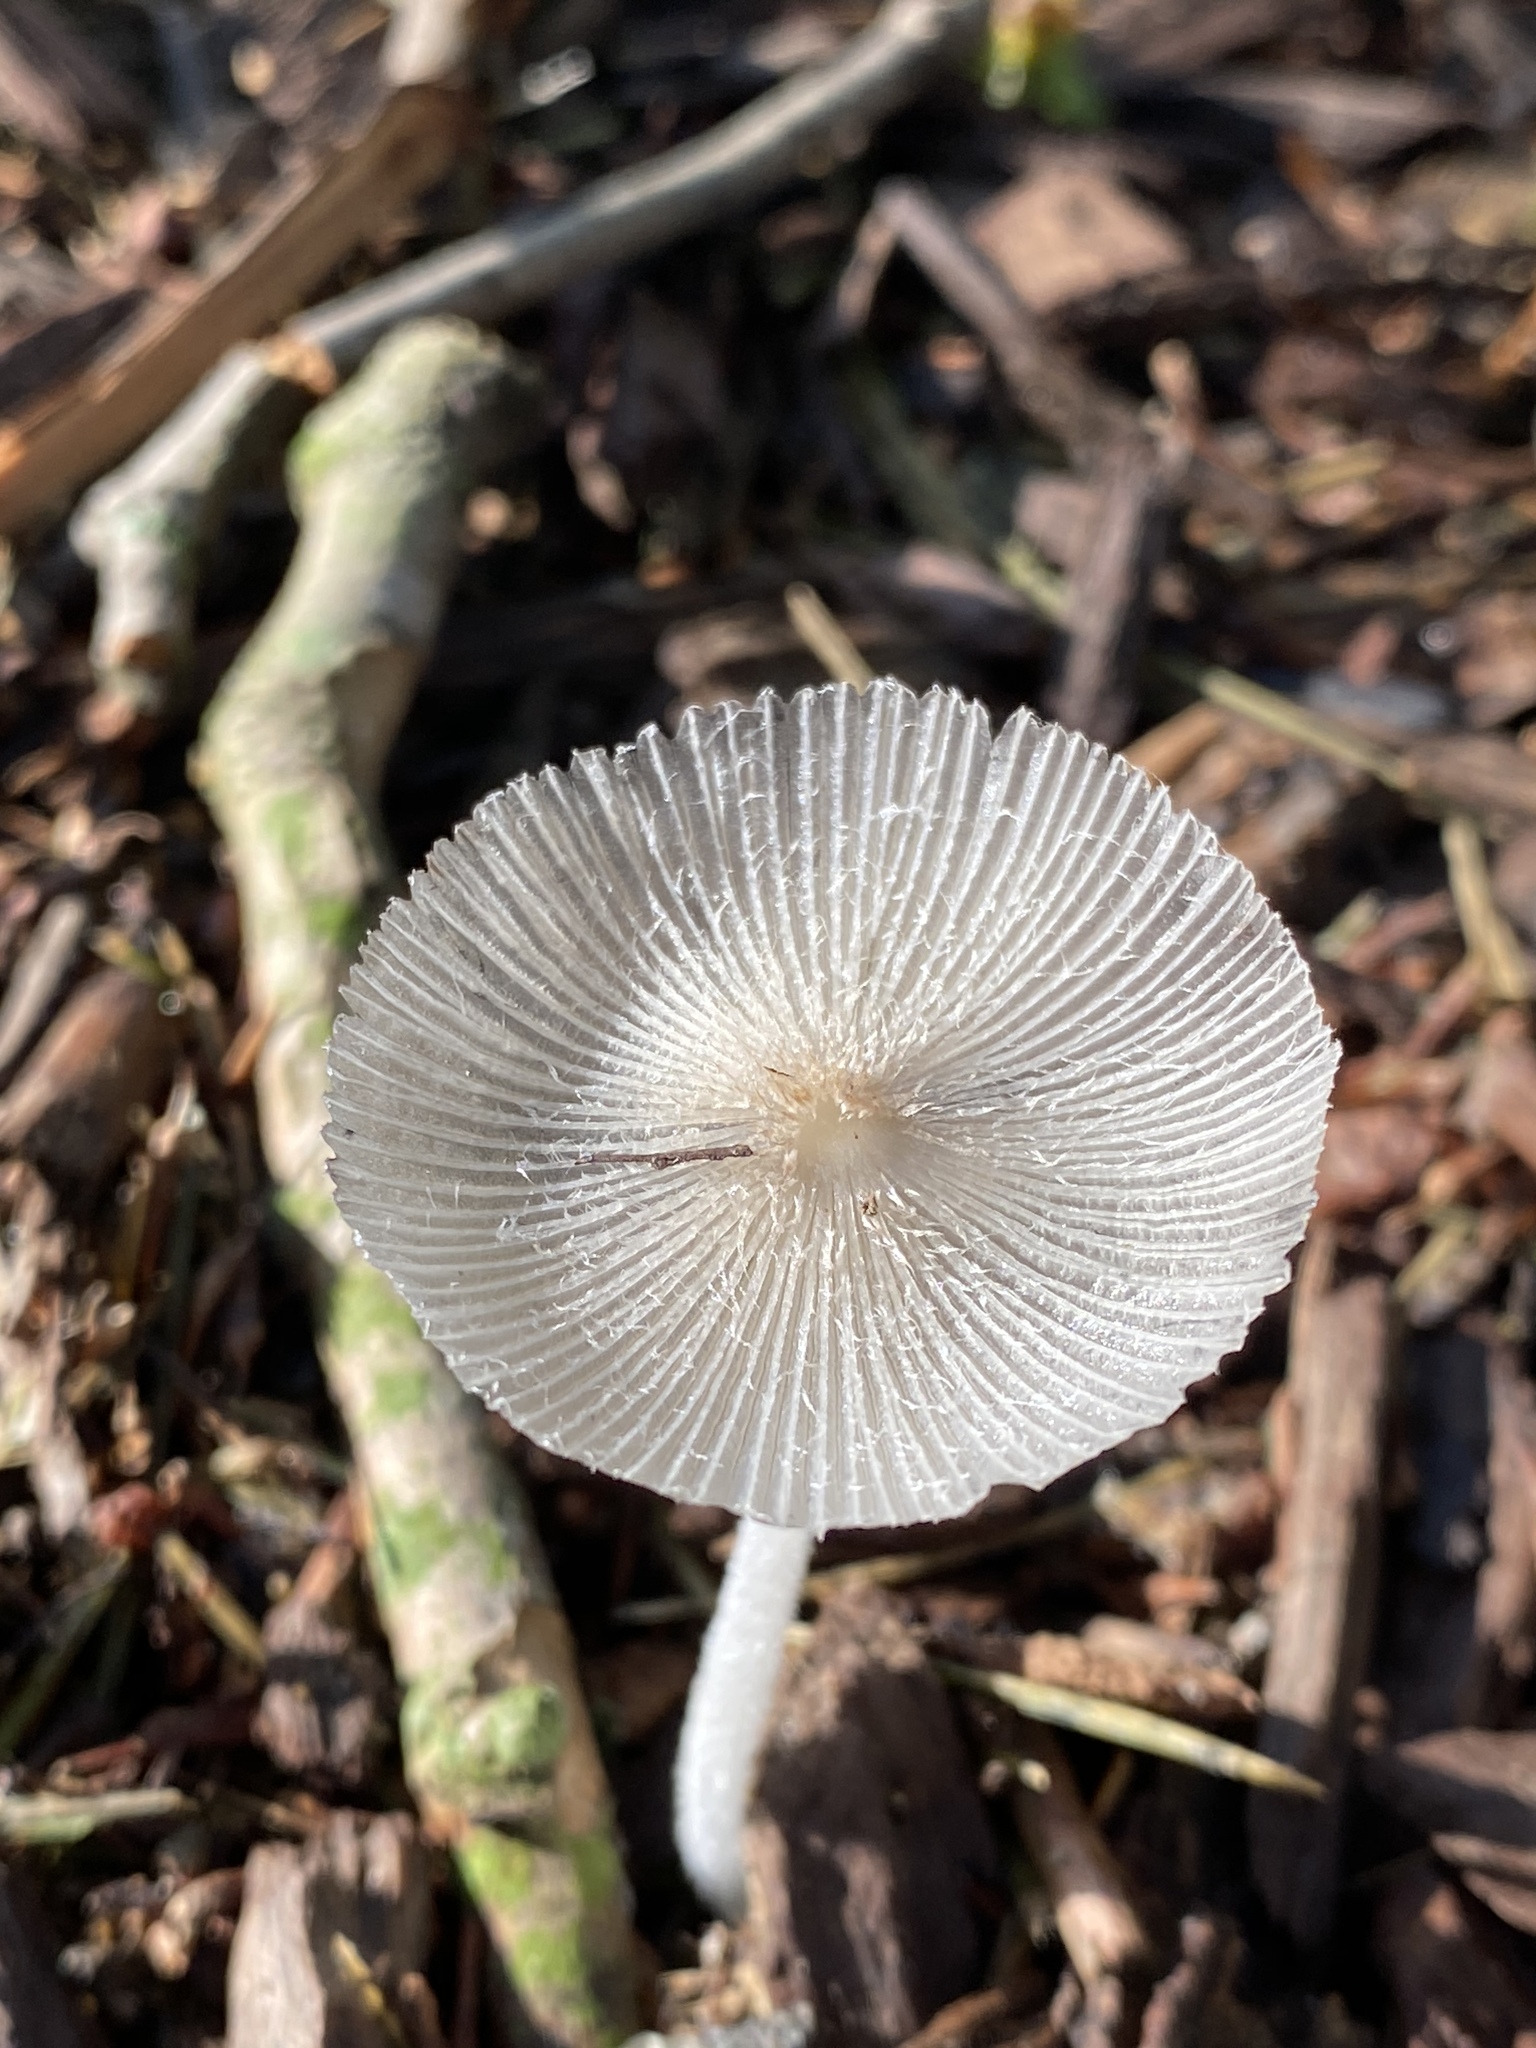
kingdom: Fungi
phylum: Basidiomycota
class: Agaricomycetes
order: Agaricales
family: Psathyrellaceae
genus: Coprinopsis
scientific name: Coprinopsis lagopus
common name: Hare'sfoot inkcap
